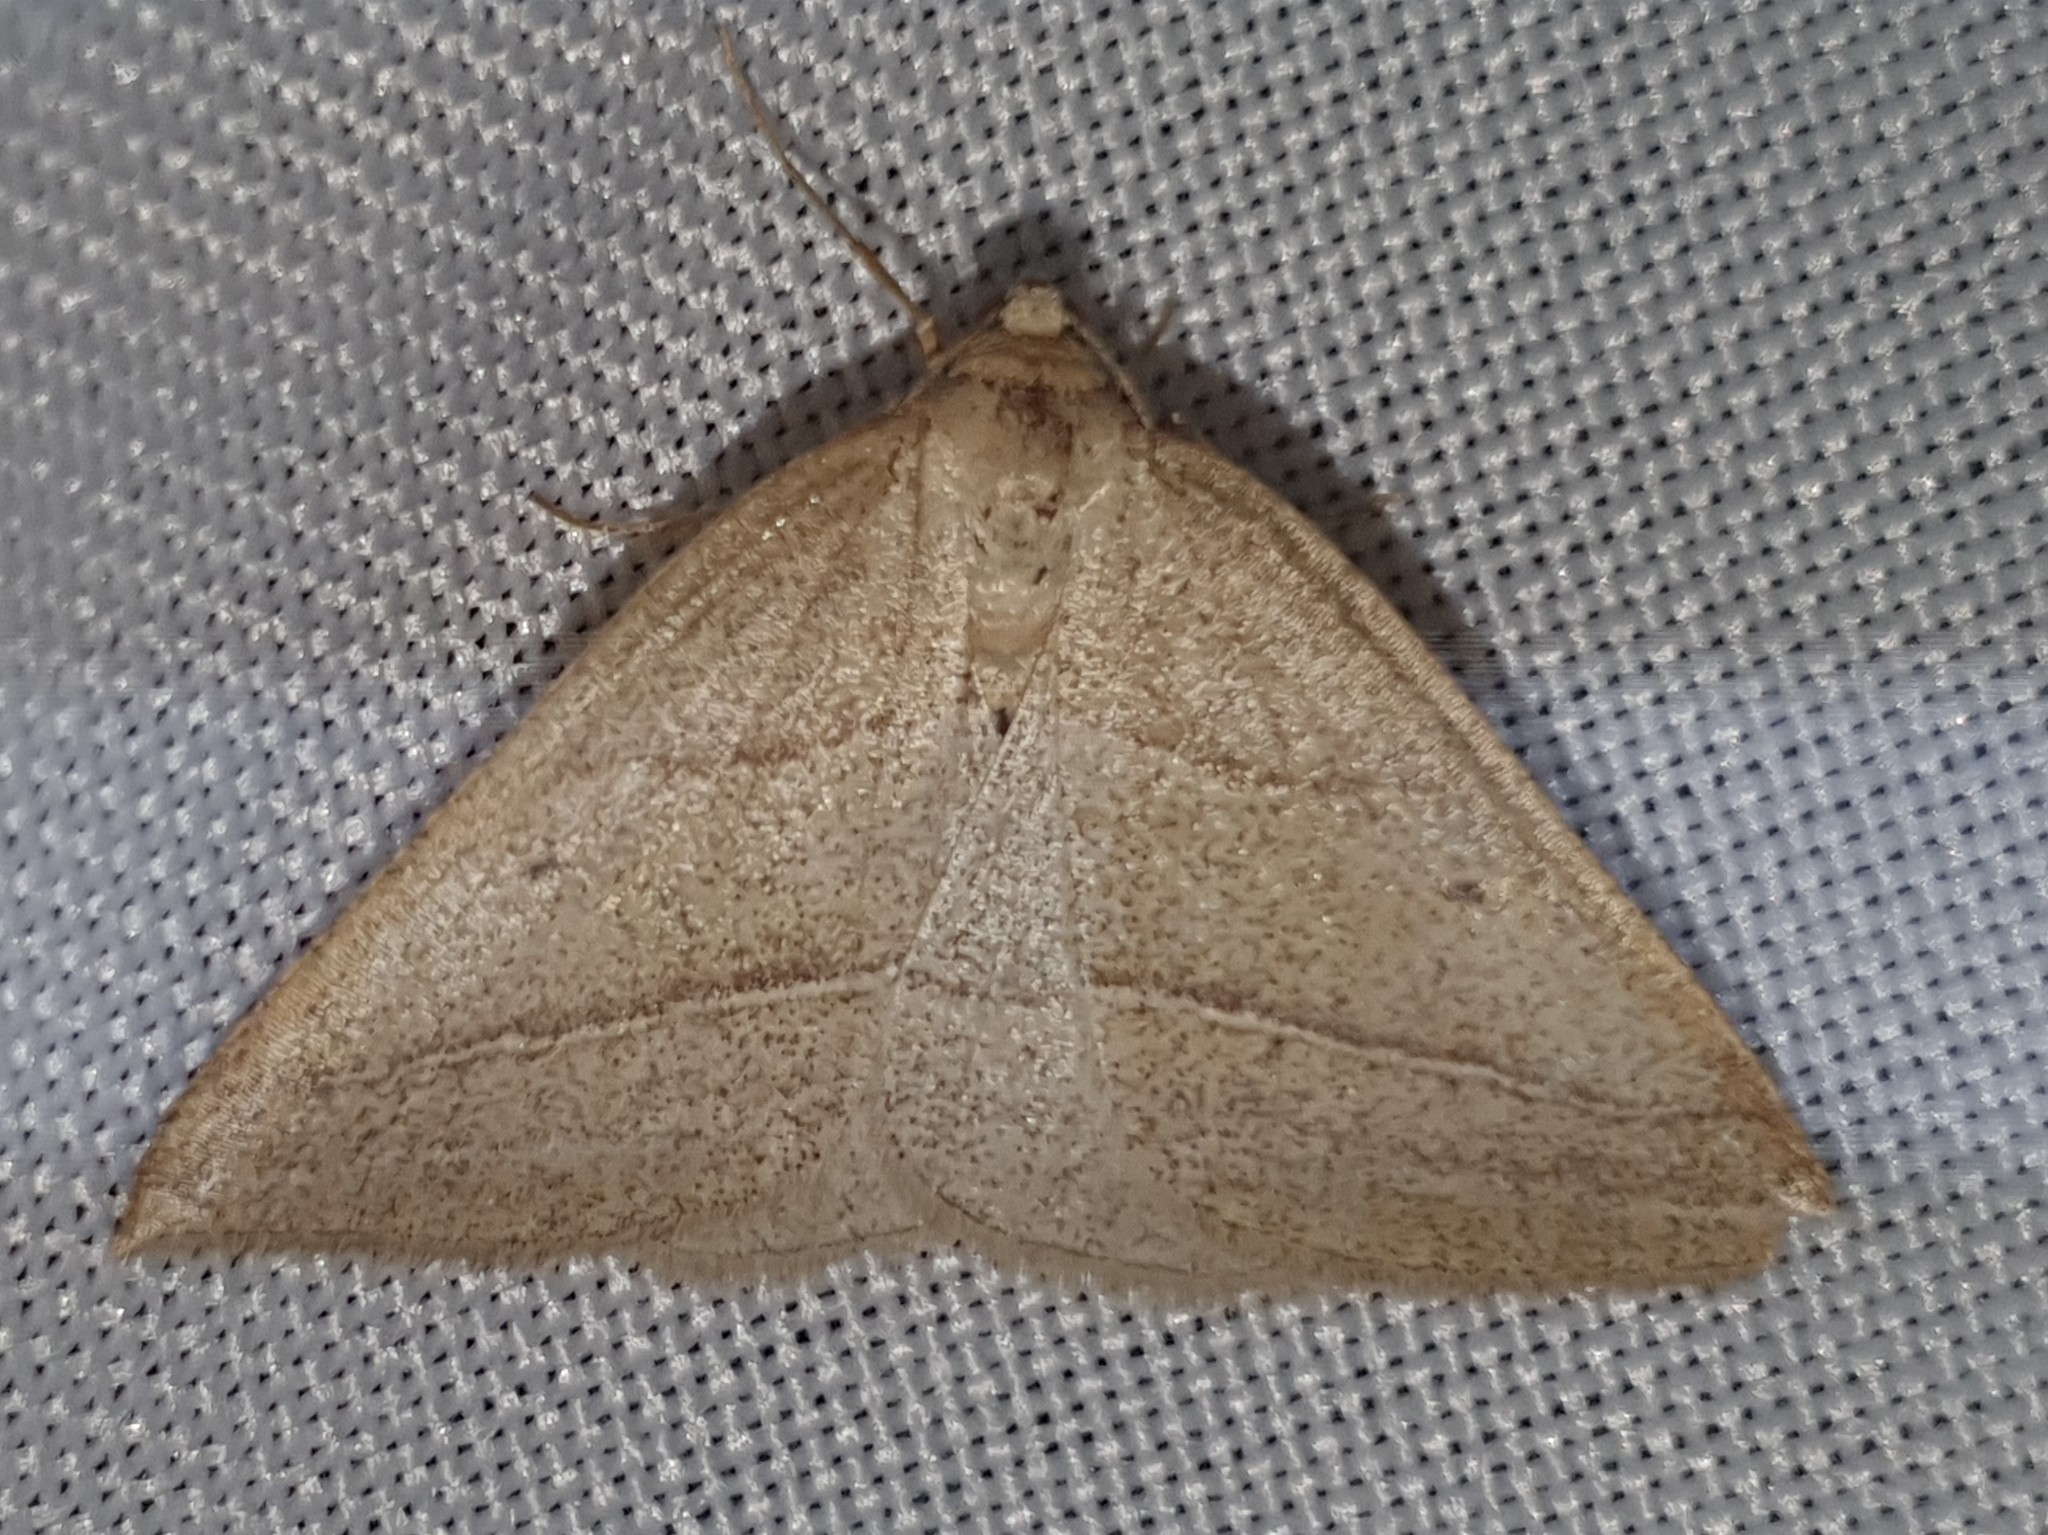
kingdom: Animalia
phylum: Arthropoda
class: Insecta
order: Lepidoptera
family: Pterophoridae
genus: Pterophorus
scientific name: Pterophorus Petrophora chlorosata
